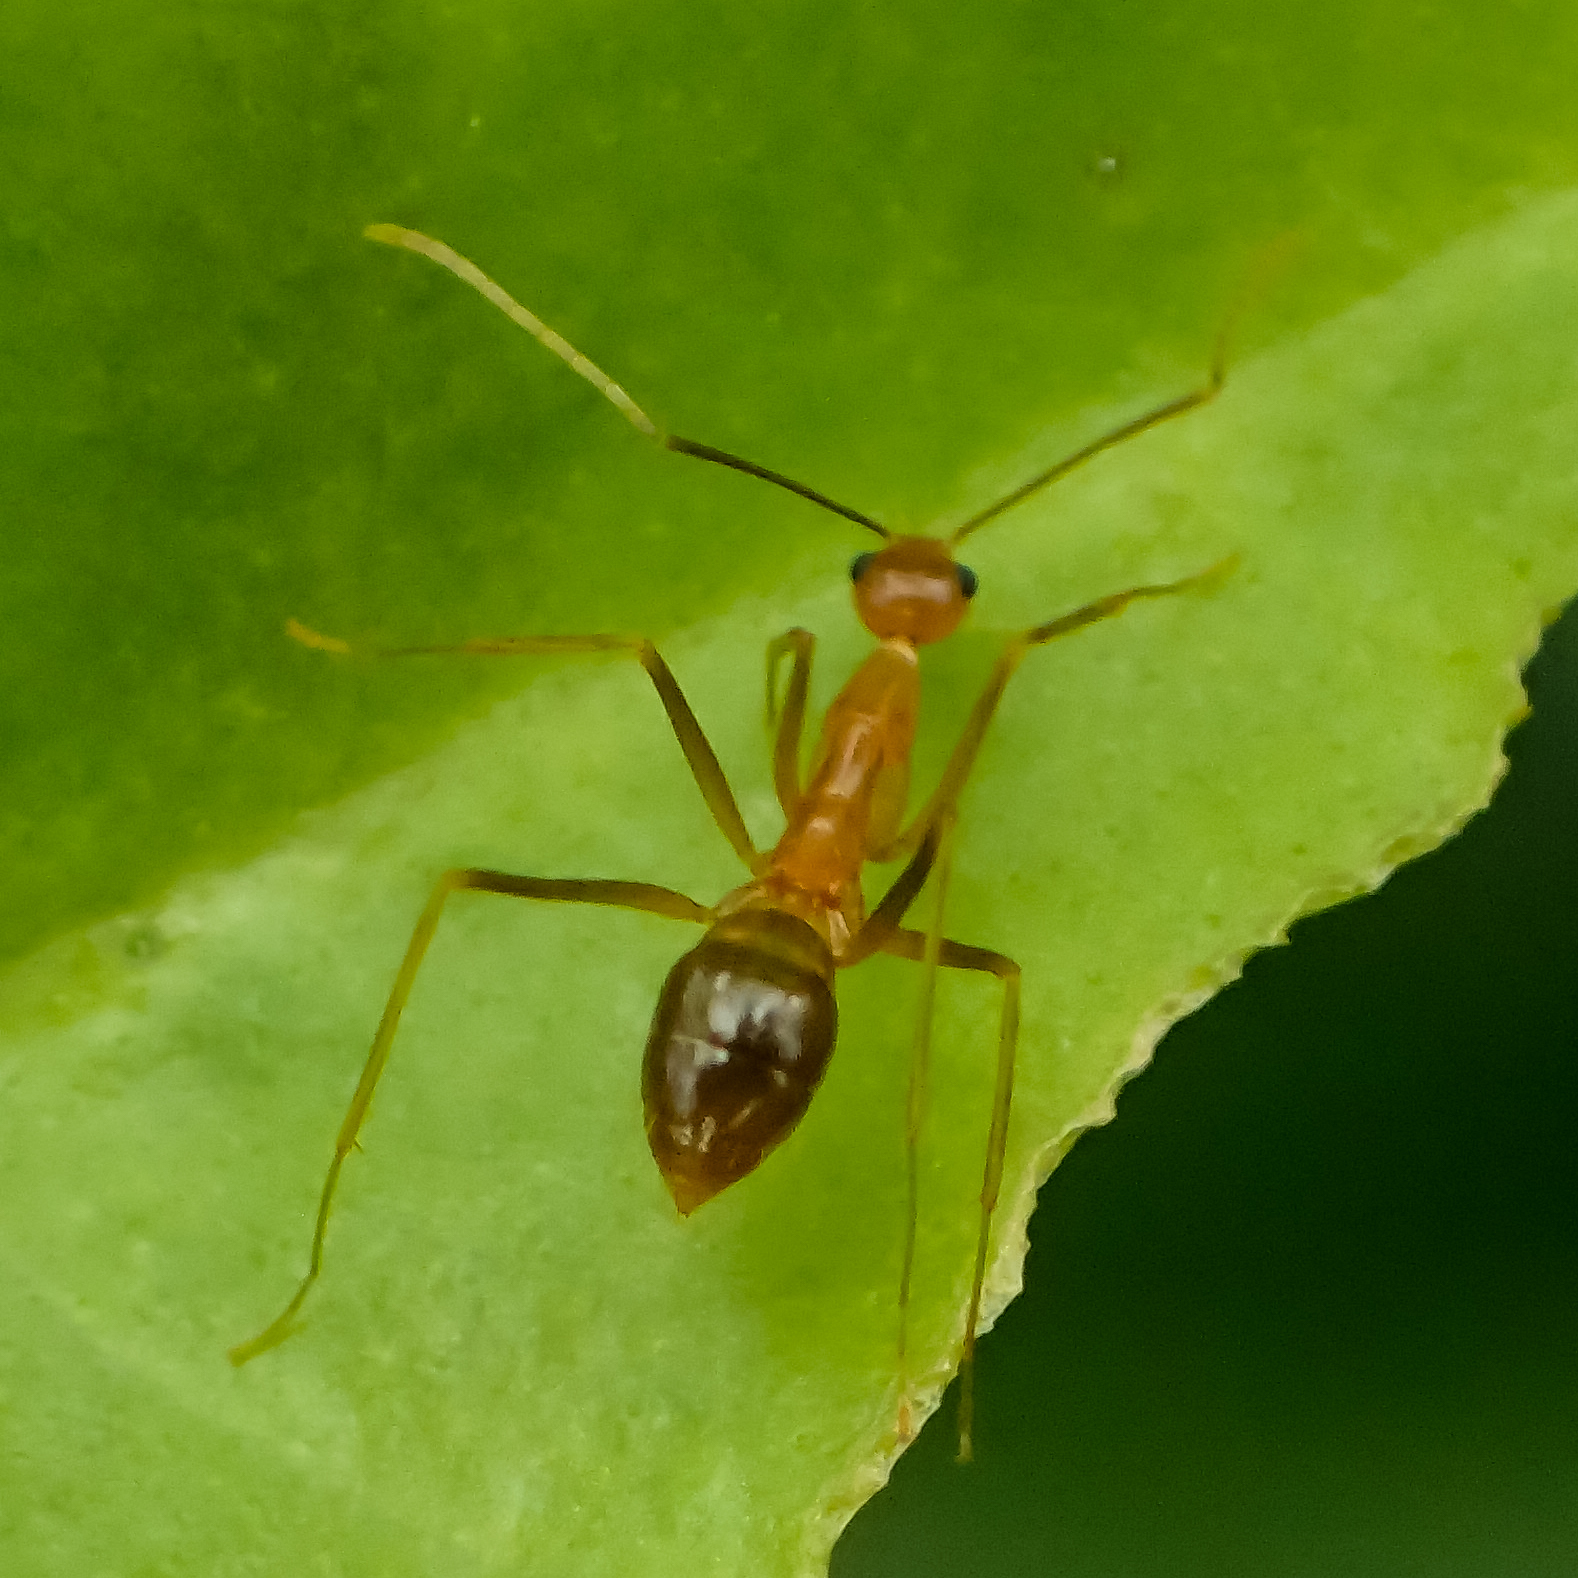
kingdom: Animalia
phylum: Arthropoda
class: Insecta
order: Hymenoptera
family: Formicidae
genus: Anoplolepis
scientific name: Anoplolepis gracilipes
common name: Ant
